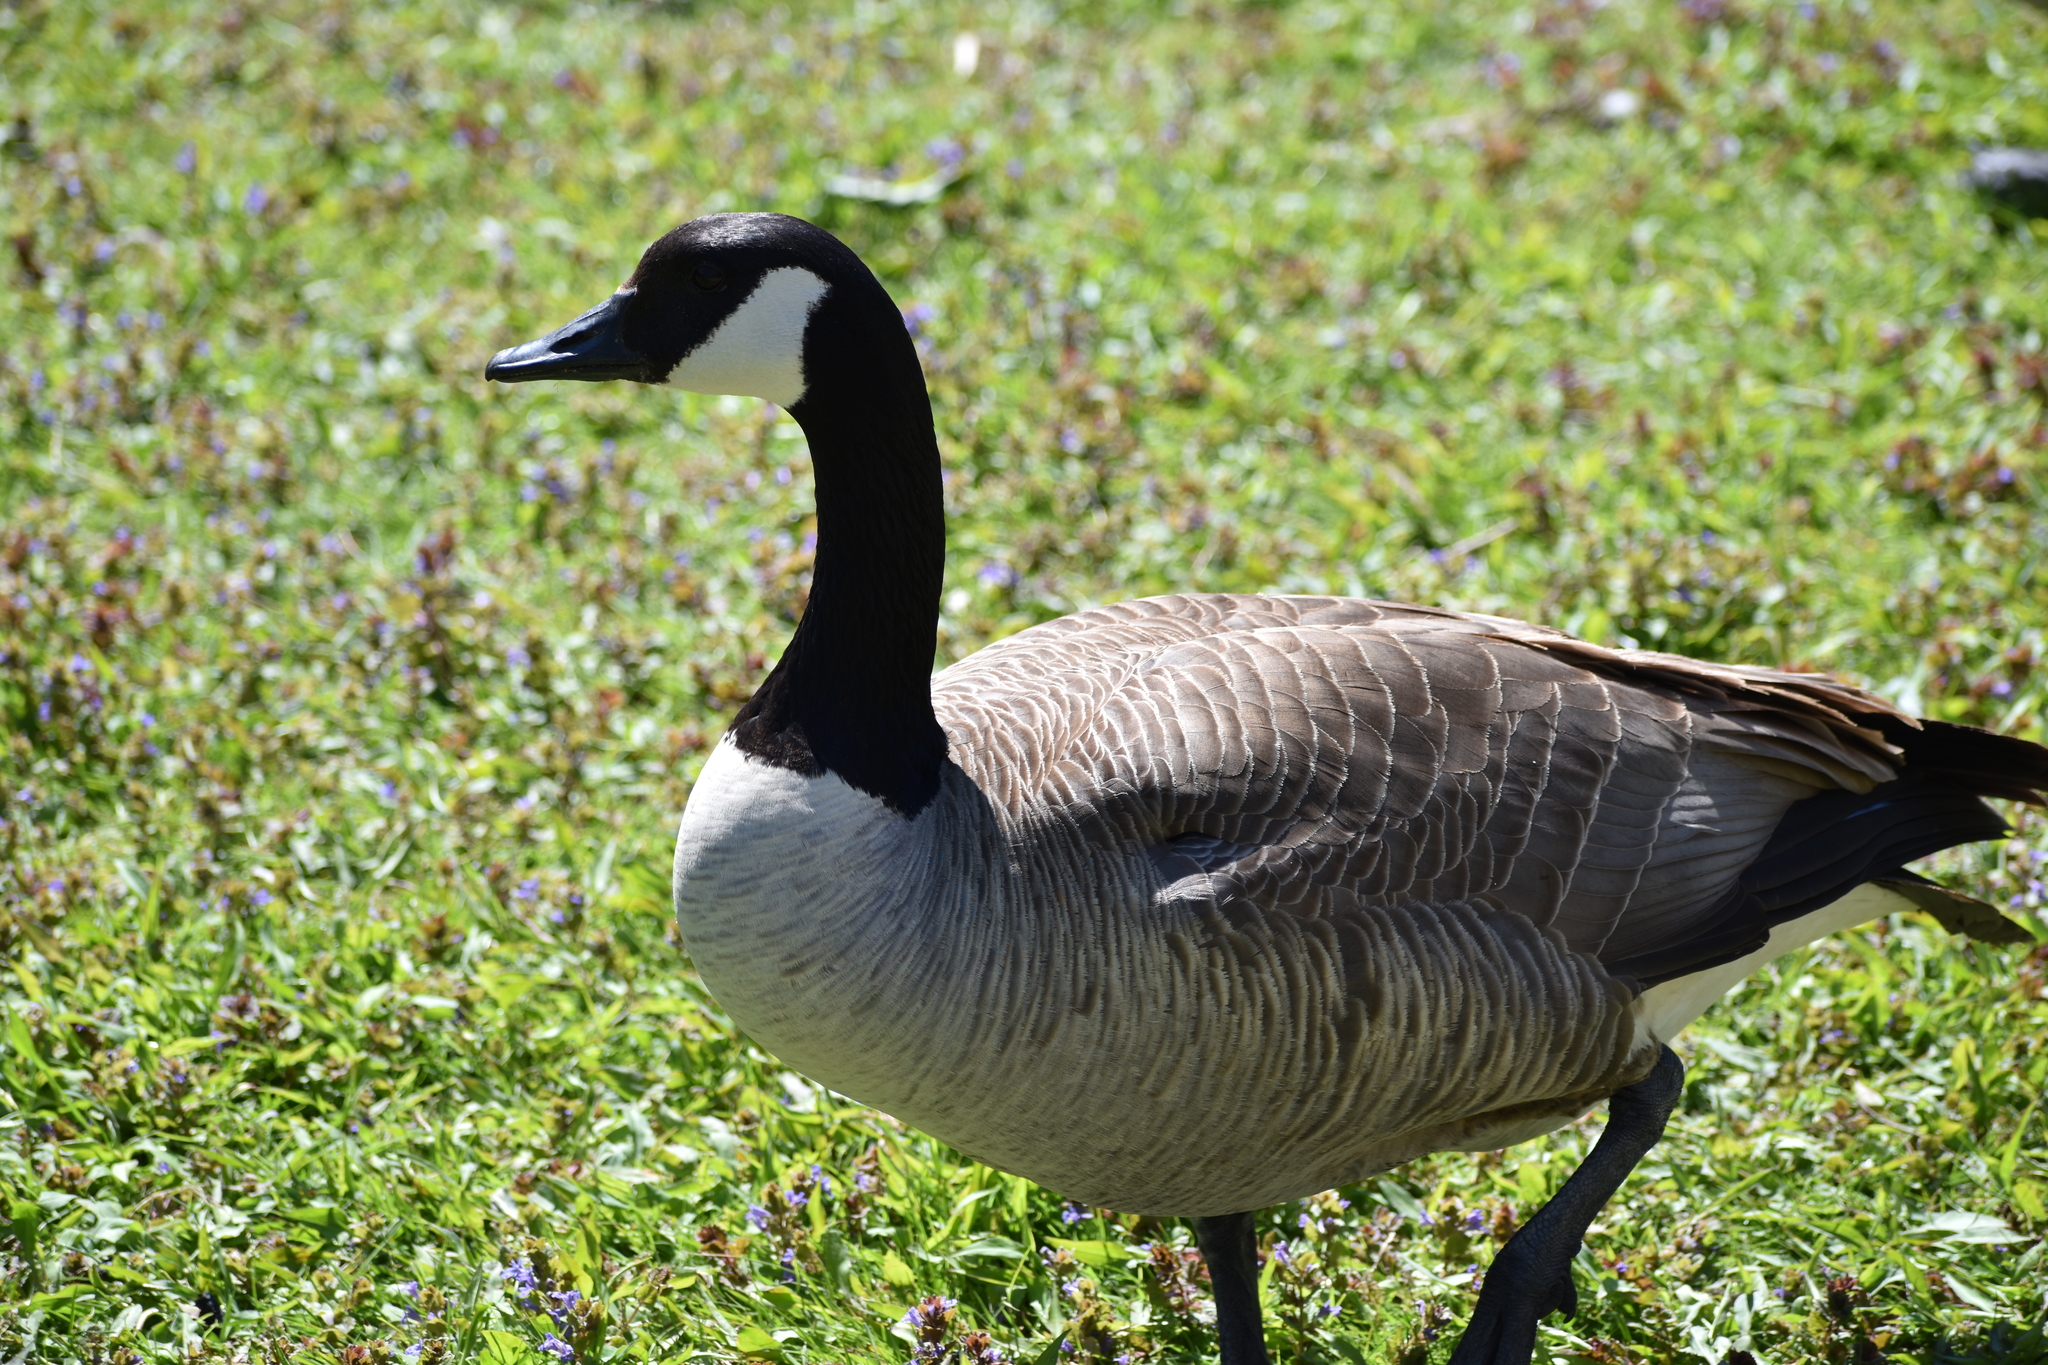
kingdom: Animalia
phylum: Chordata
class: Aves
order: Anseriformes
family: Anatidae
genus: Branta
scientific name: Branta canadensis
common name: Canada goose
